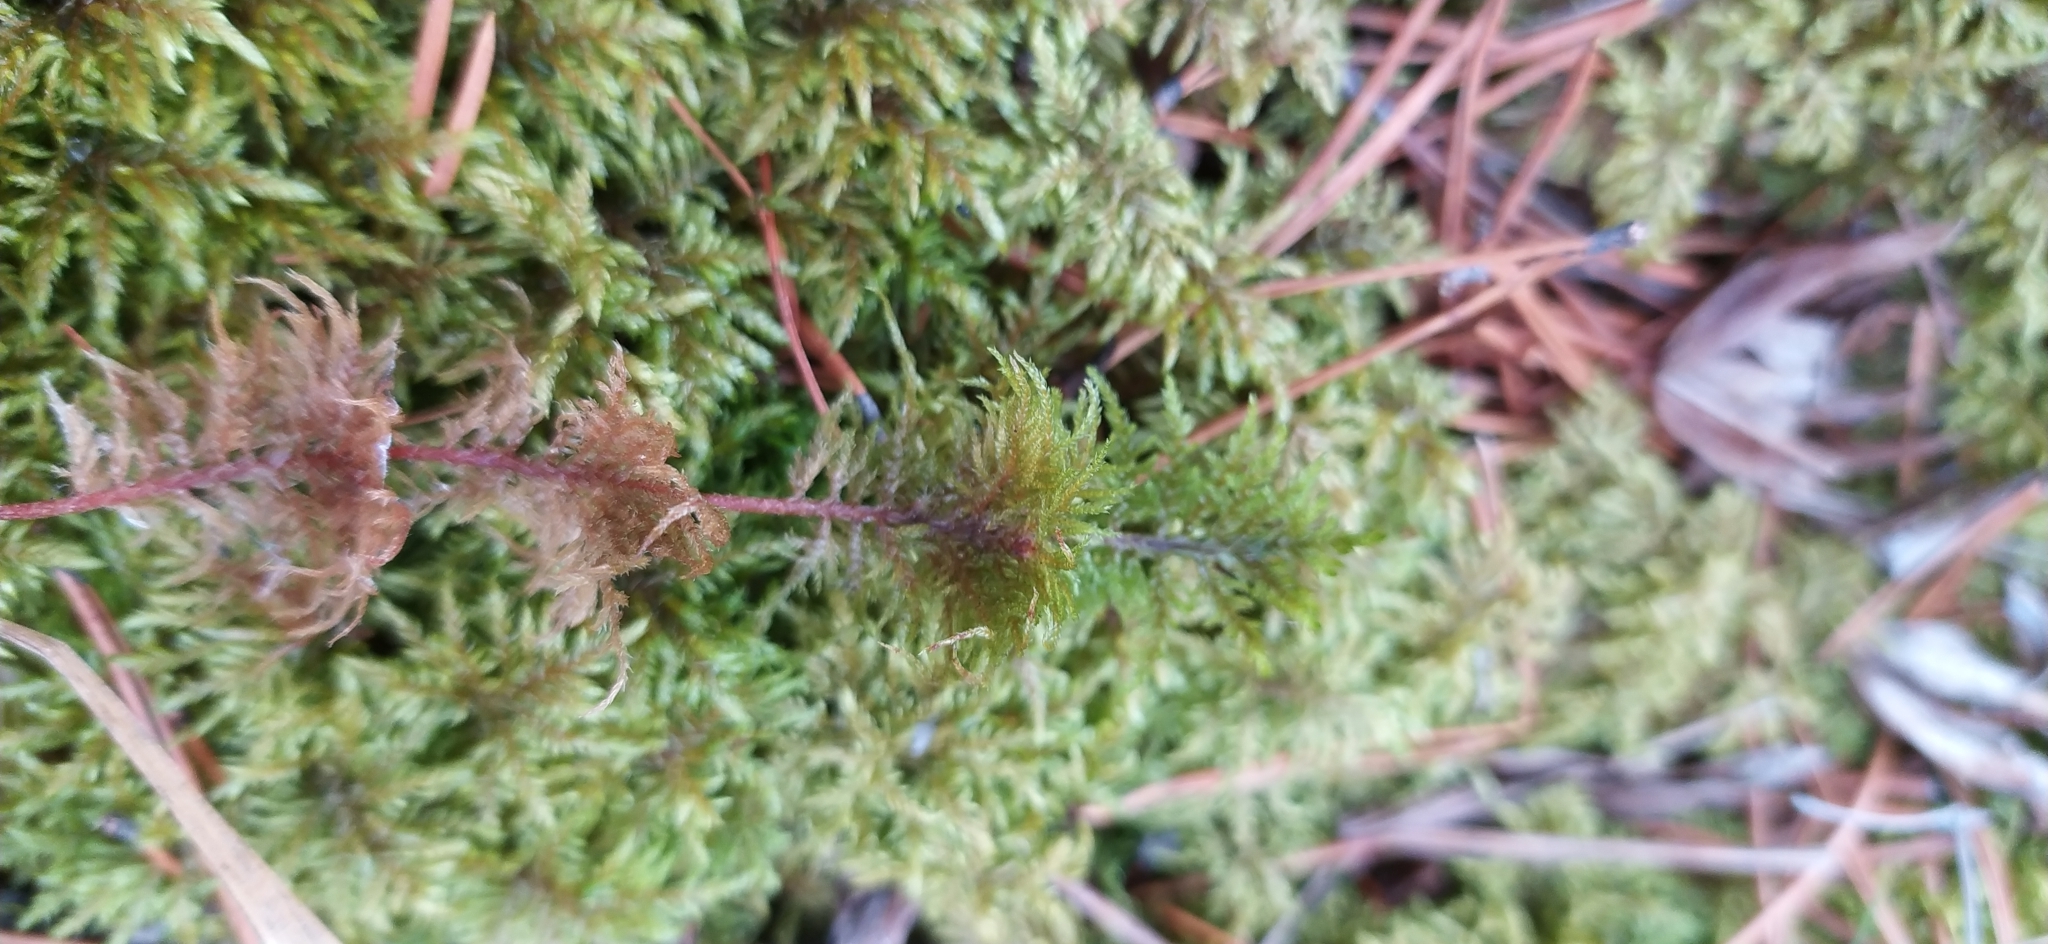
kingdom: Plantae
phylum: Bryophyta
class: Bryopsida
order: Hypnales
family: Hylocomiaceae
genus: Hylocomium
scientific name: Hylocomium splendens
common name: Stairstep moss
